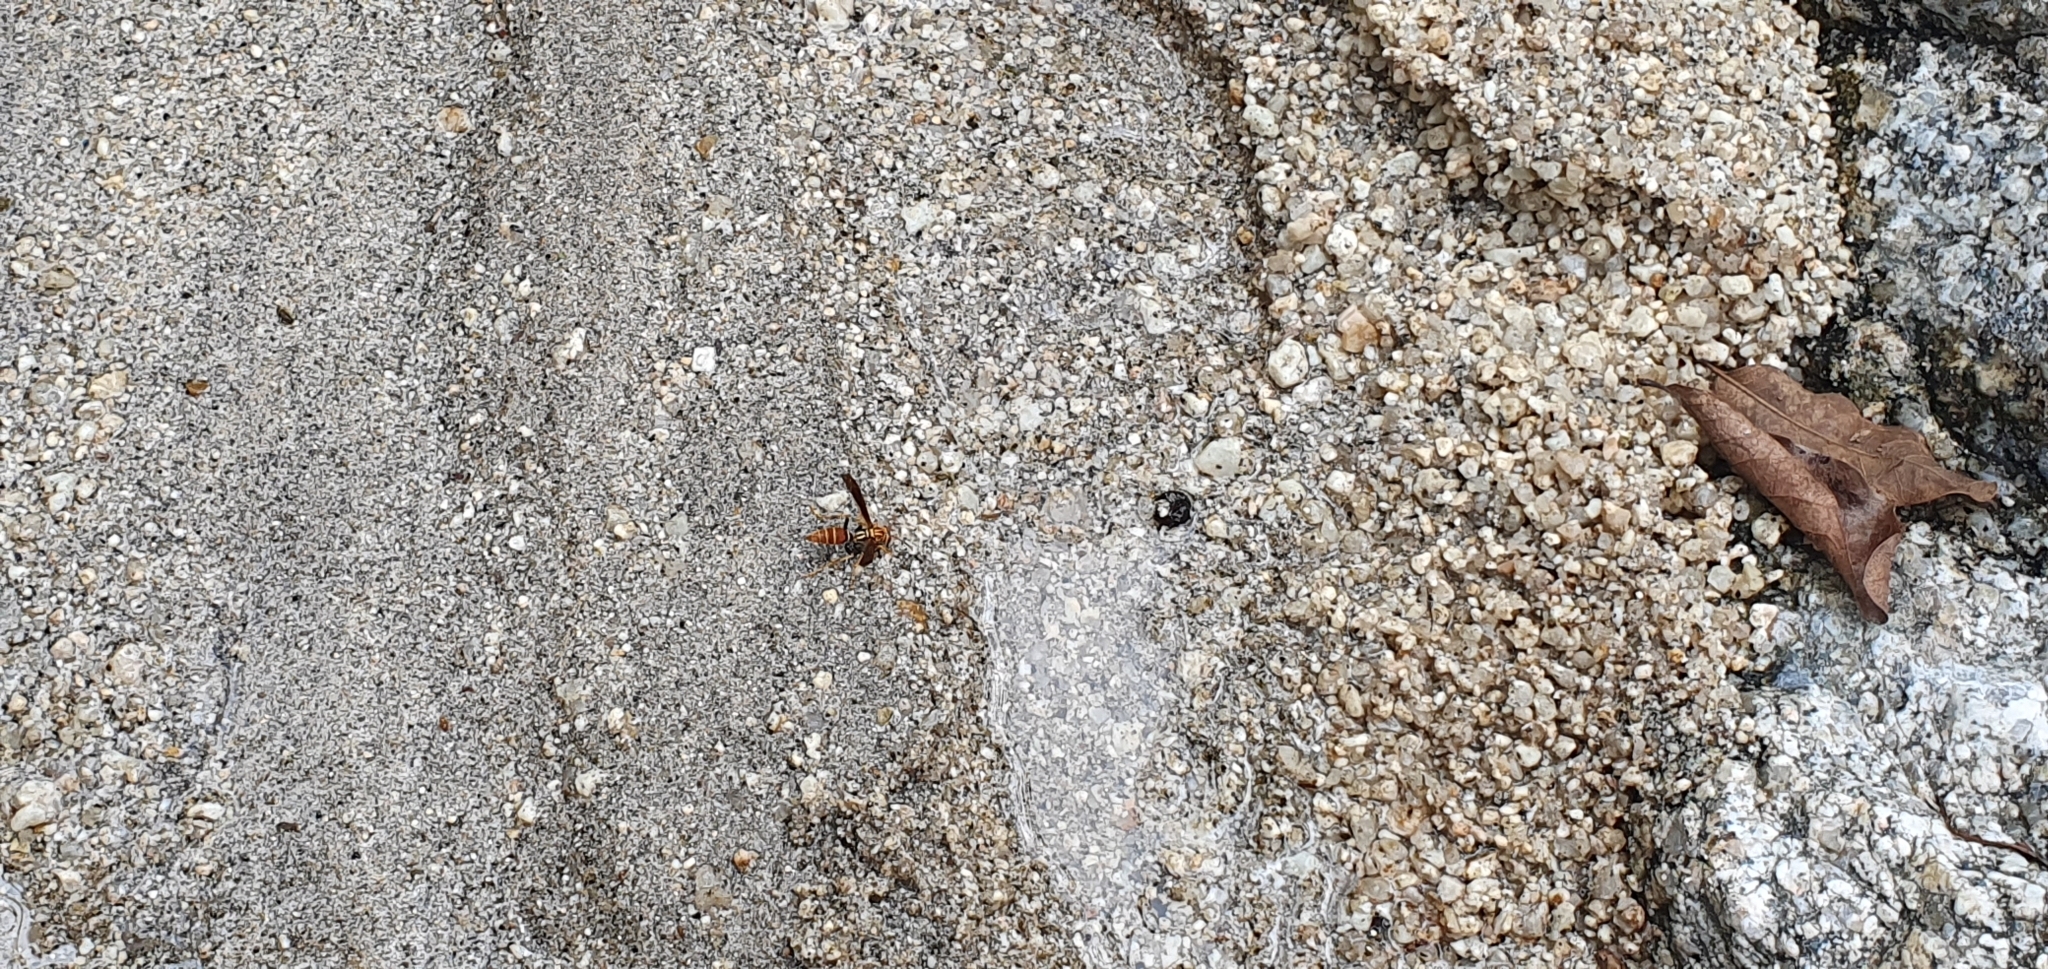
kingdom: Animalia
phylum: Arthropoda
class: Insecta
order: Hymenoptera
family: Eumenidae
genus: Polistes
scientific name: Polistes lineonotus
